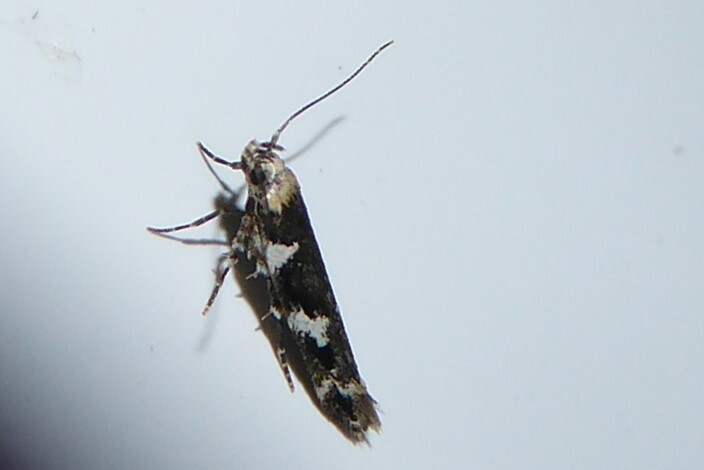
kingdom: Animalia
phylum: Arthropoda
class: Insecta
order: Lepidoptera
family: Cosmopterigidae
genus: Pyroderces
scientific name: Pyroderces deamatella
